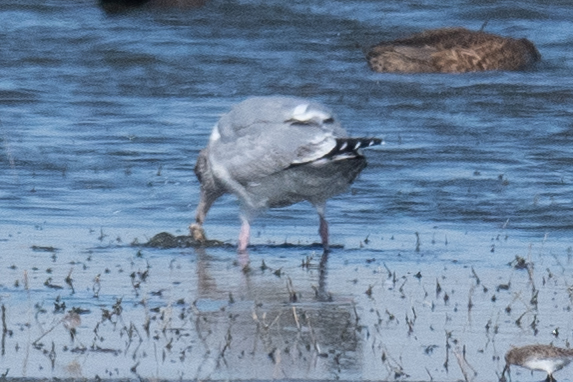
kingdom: Animalia
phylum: Chordata
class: Aves
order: Charadriiformes
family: Laridae
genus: Larus
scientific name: Larus argentatus
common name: Herring gull
